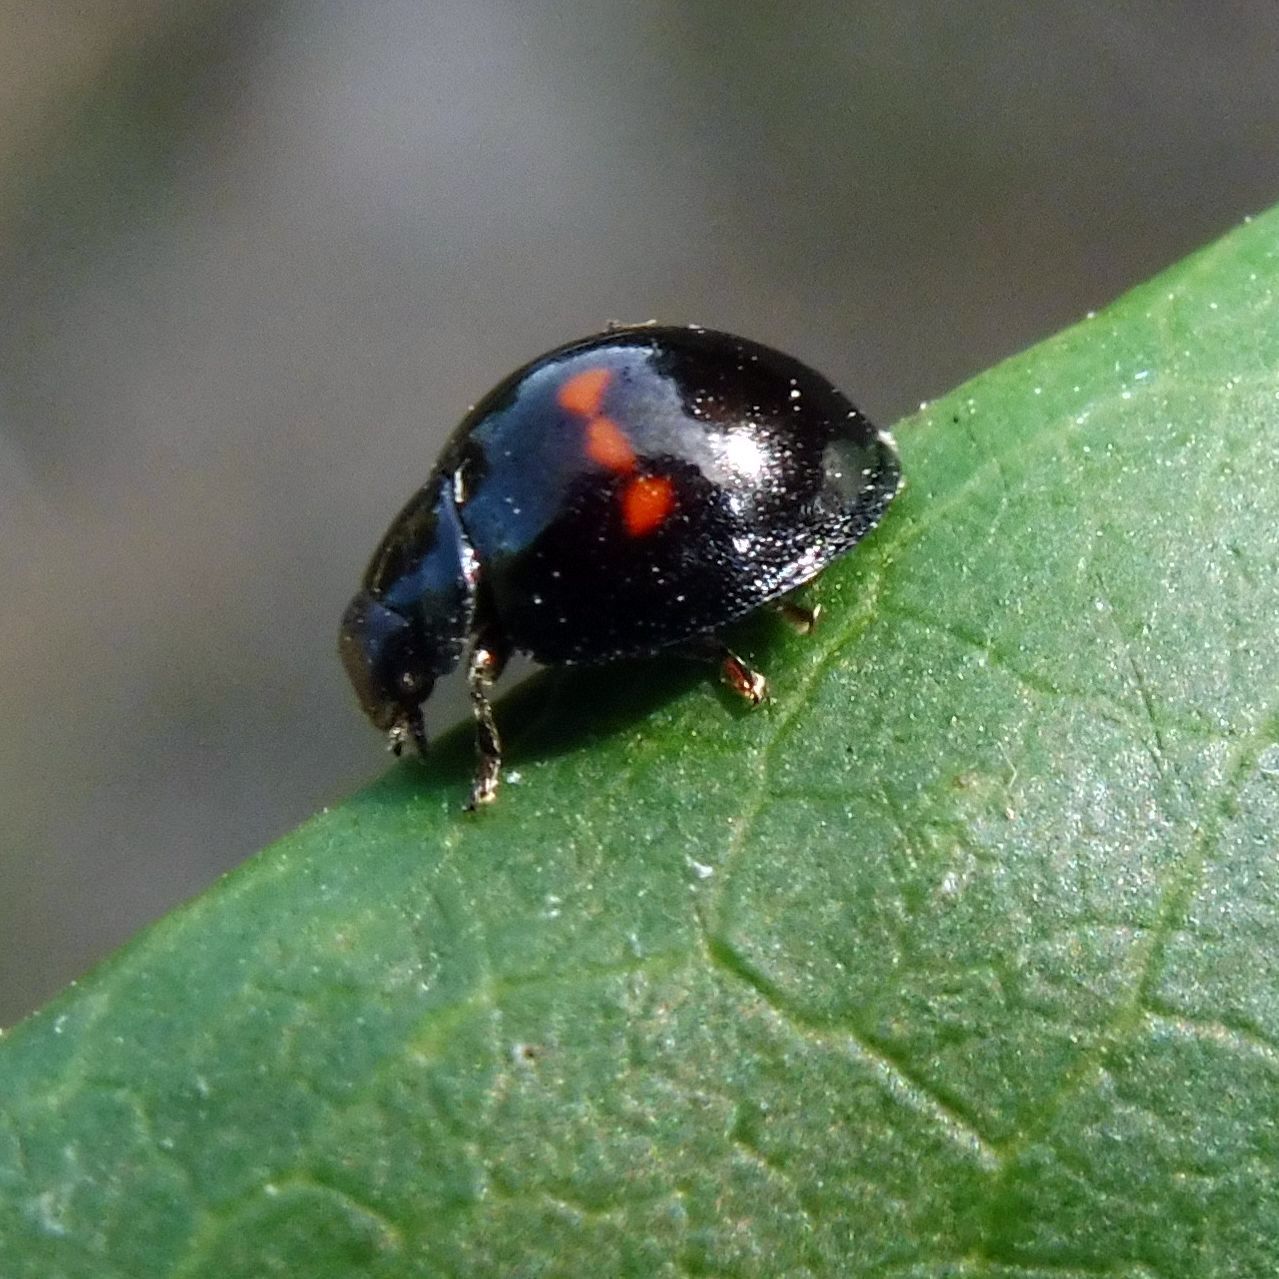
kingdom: Animalia
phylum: Arthropoda
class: Insecta
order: Coleoptera
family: Coccinellidae
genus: Chilocorus
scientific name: Chilocorus bipustulatus
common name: Heather ladybird
